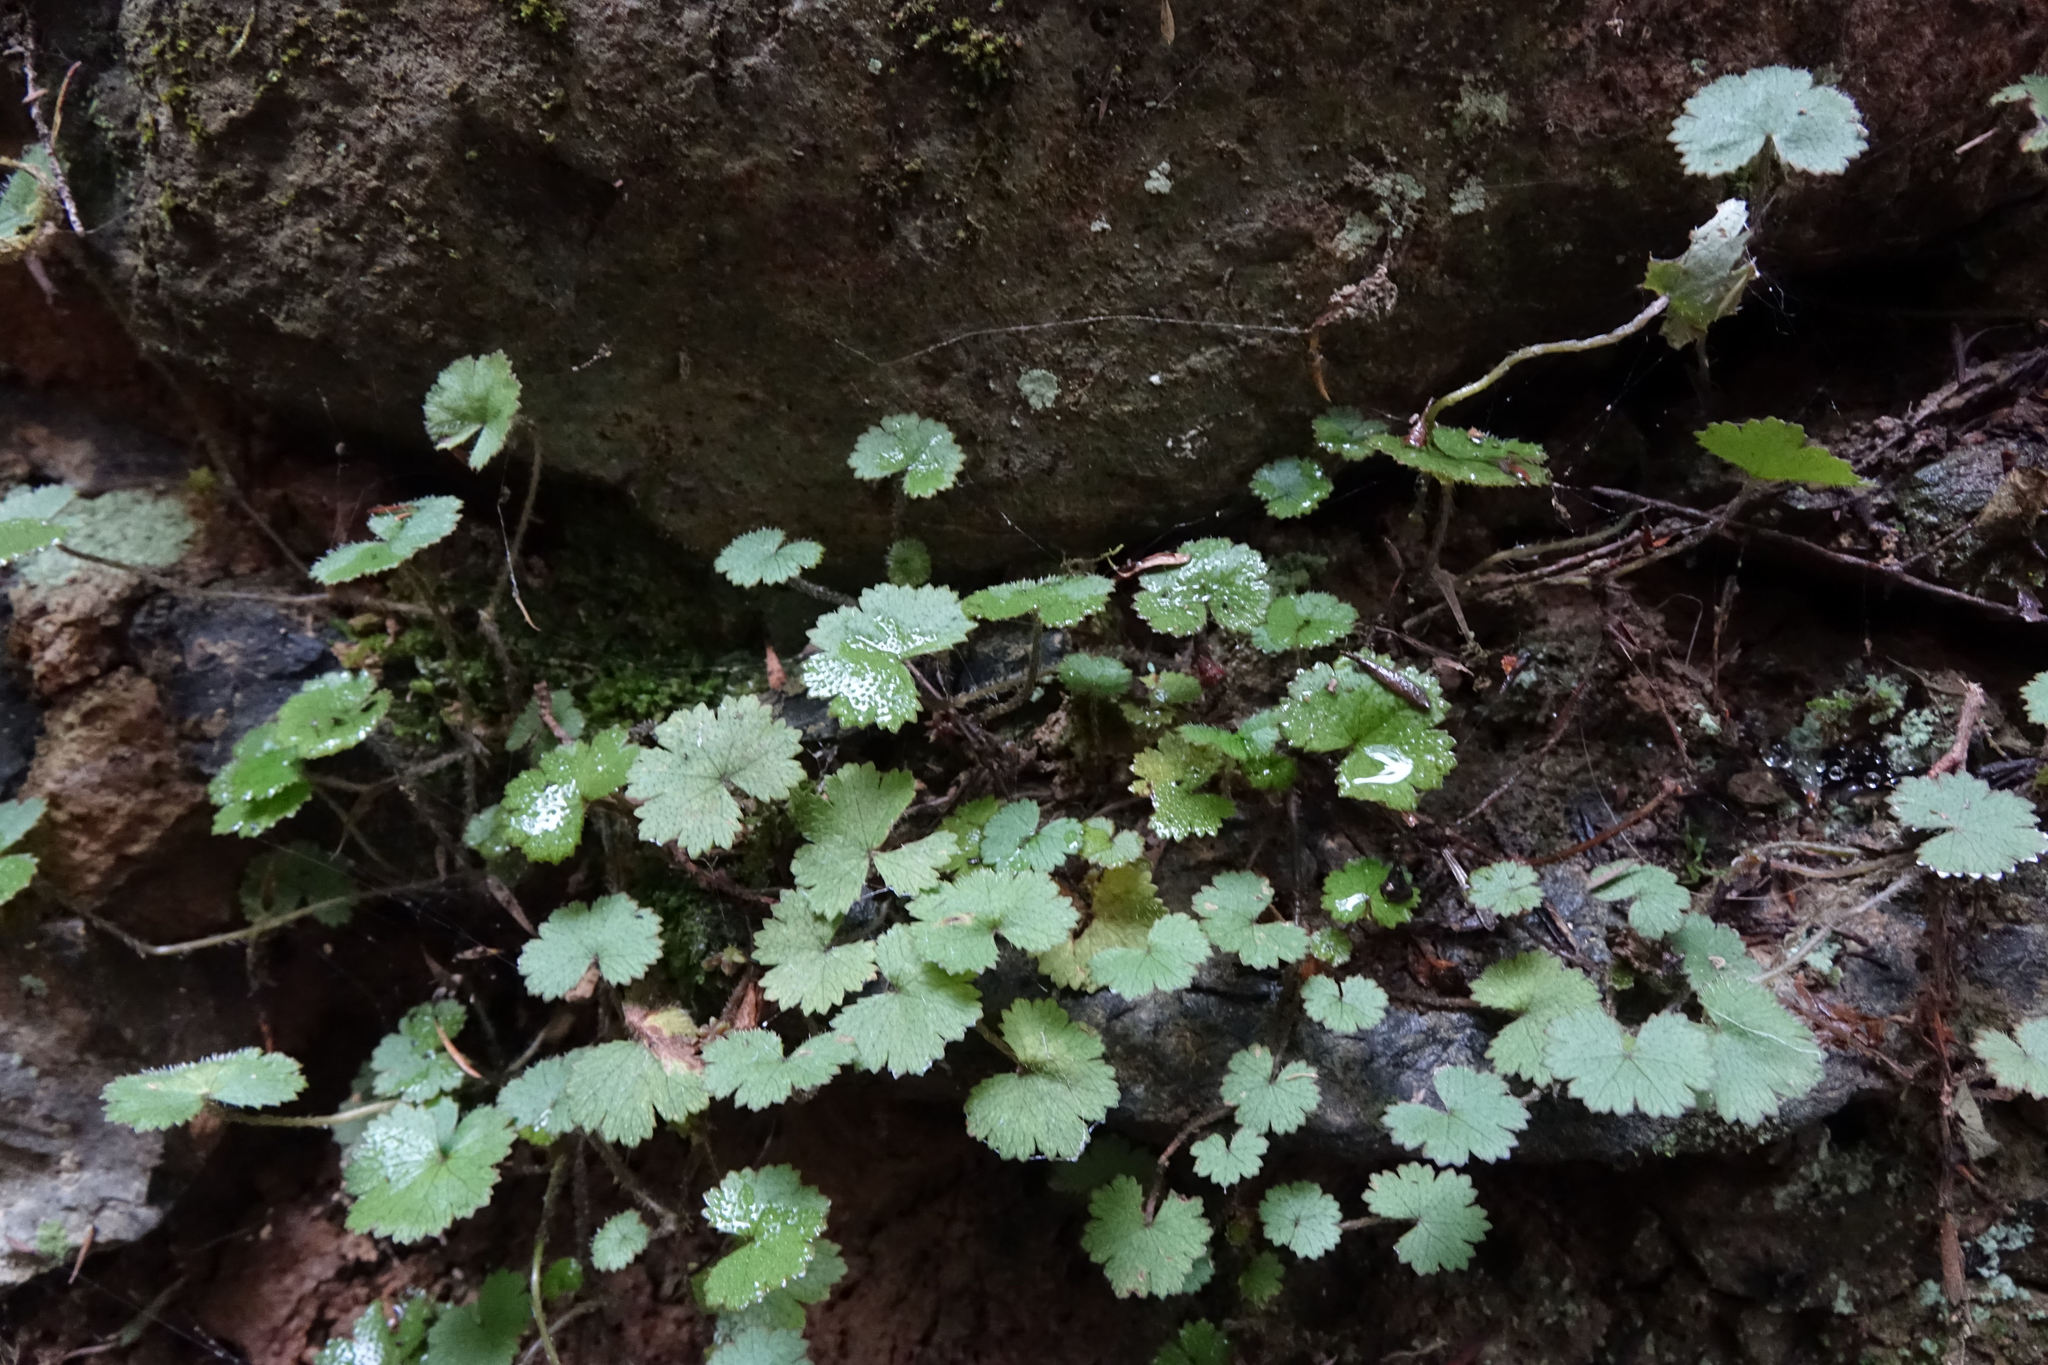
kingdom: Plantae
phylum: Tracheophyta
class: Magnoliopsida
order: Apiales
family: Araliaceae
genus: Hydrocotyle
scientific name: Hydrocotyle moschata
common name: Hairy pennywort
